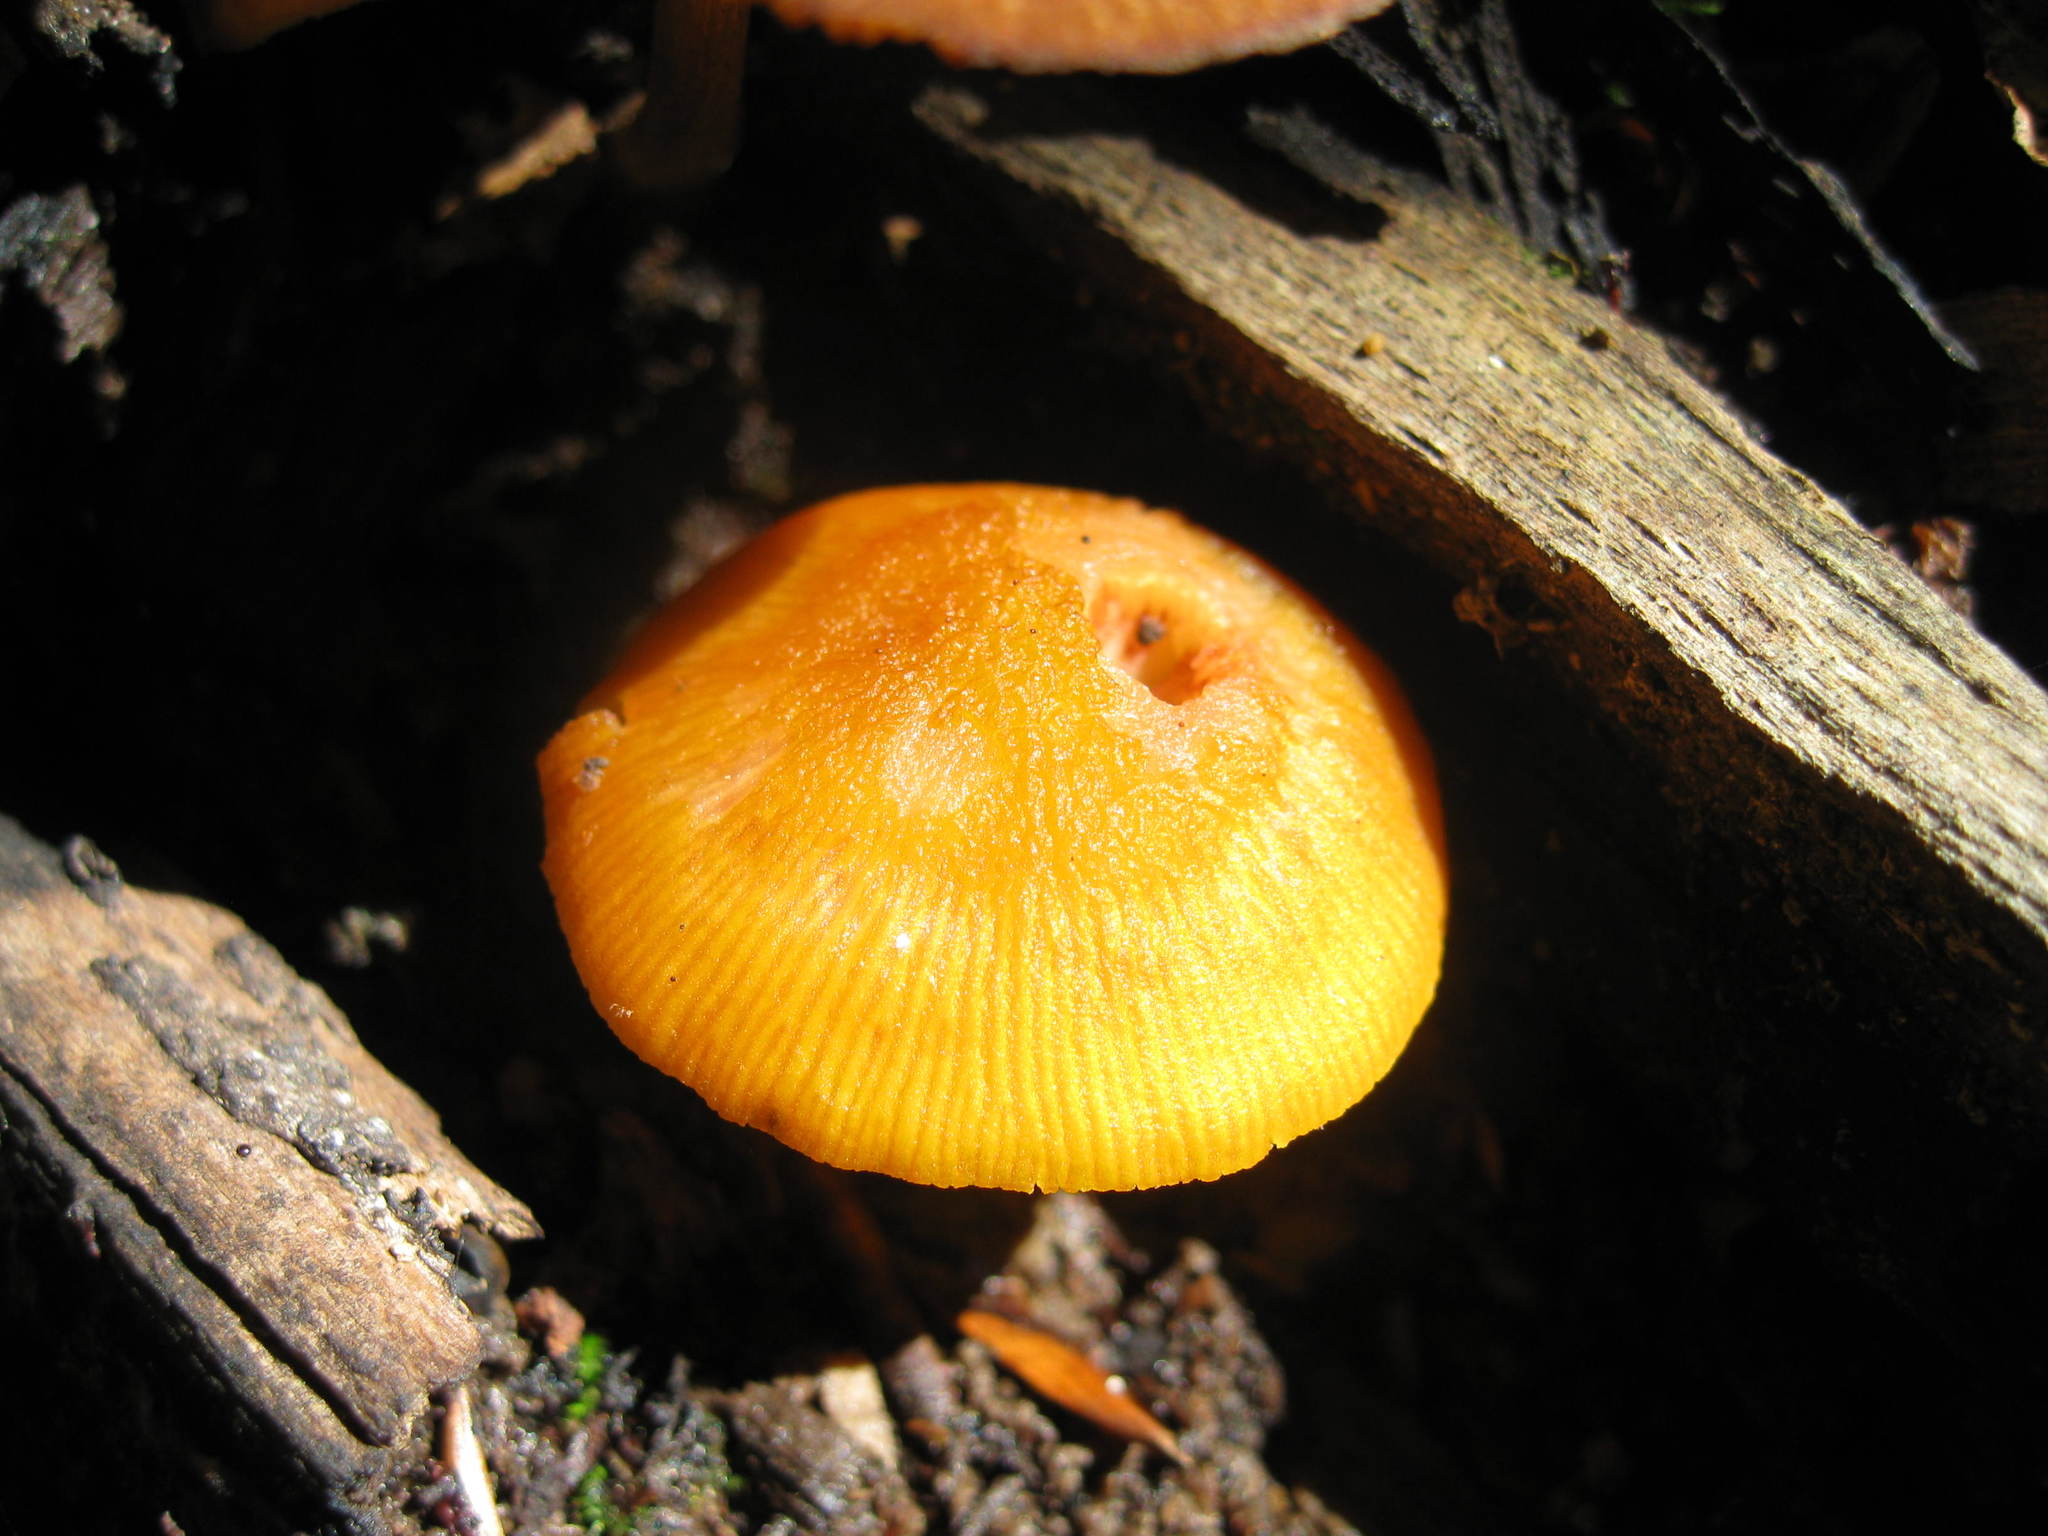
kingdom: Fungi
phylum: Basidiomycota
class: Agaricomycetes
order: Agaricales
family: Mycenaceae
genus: Mycena
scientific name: Mycena leaiana
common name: Orange mycena
